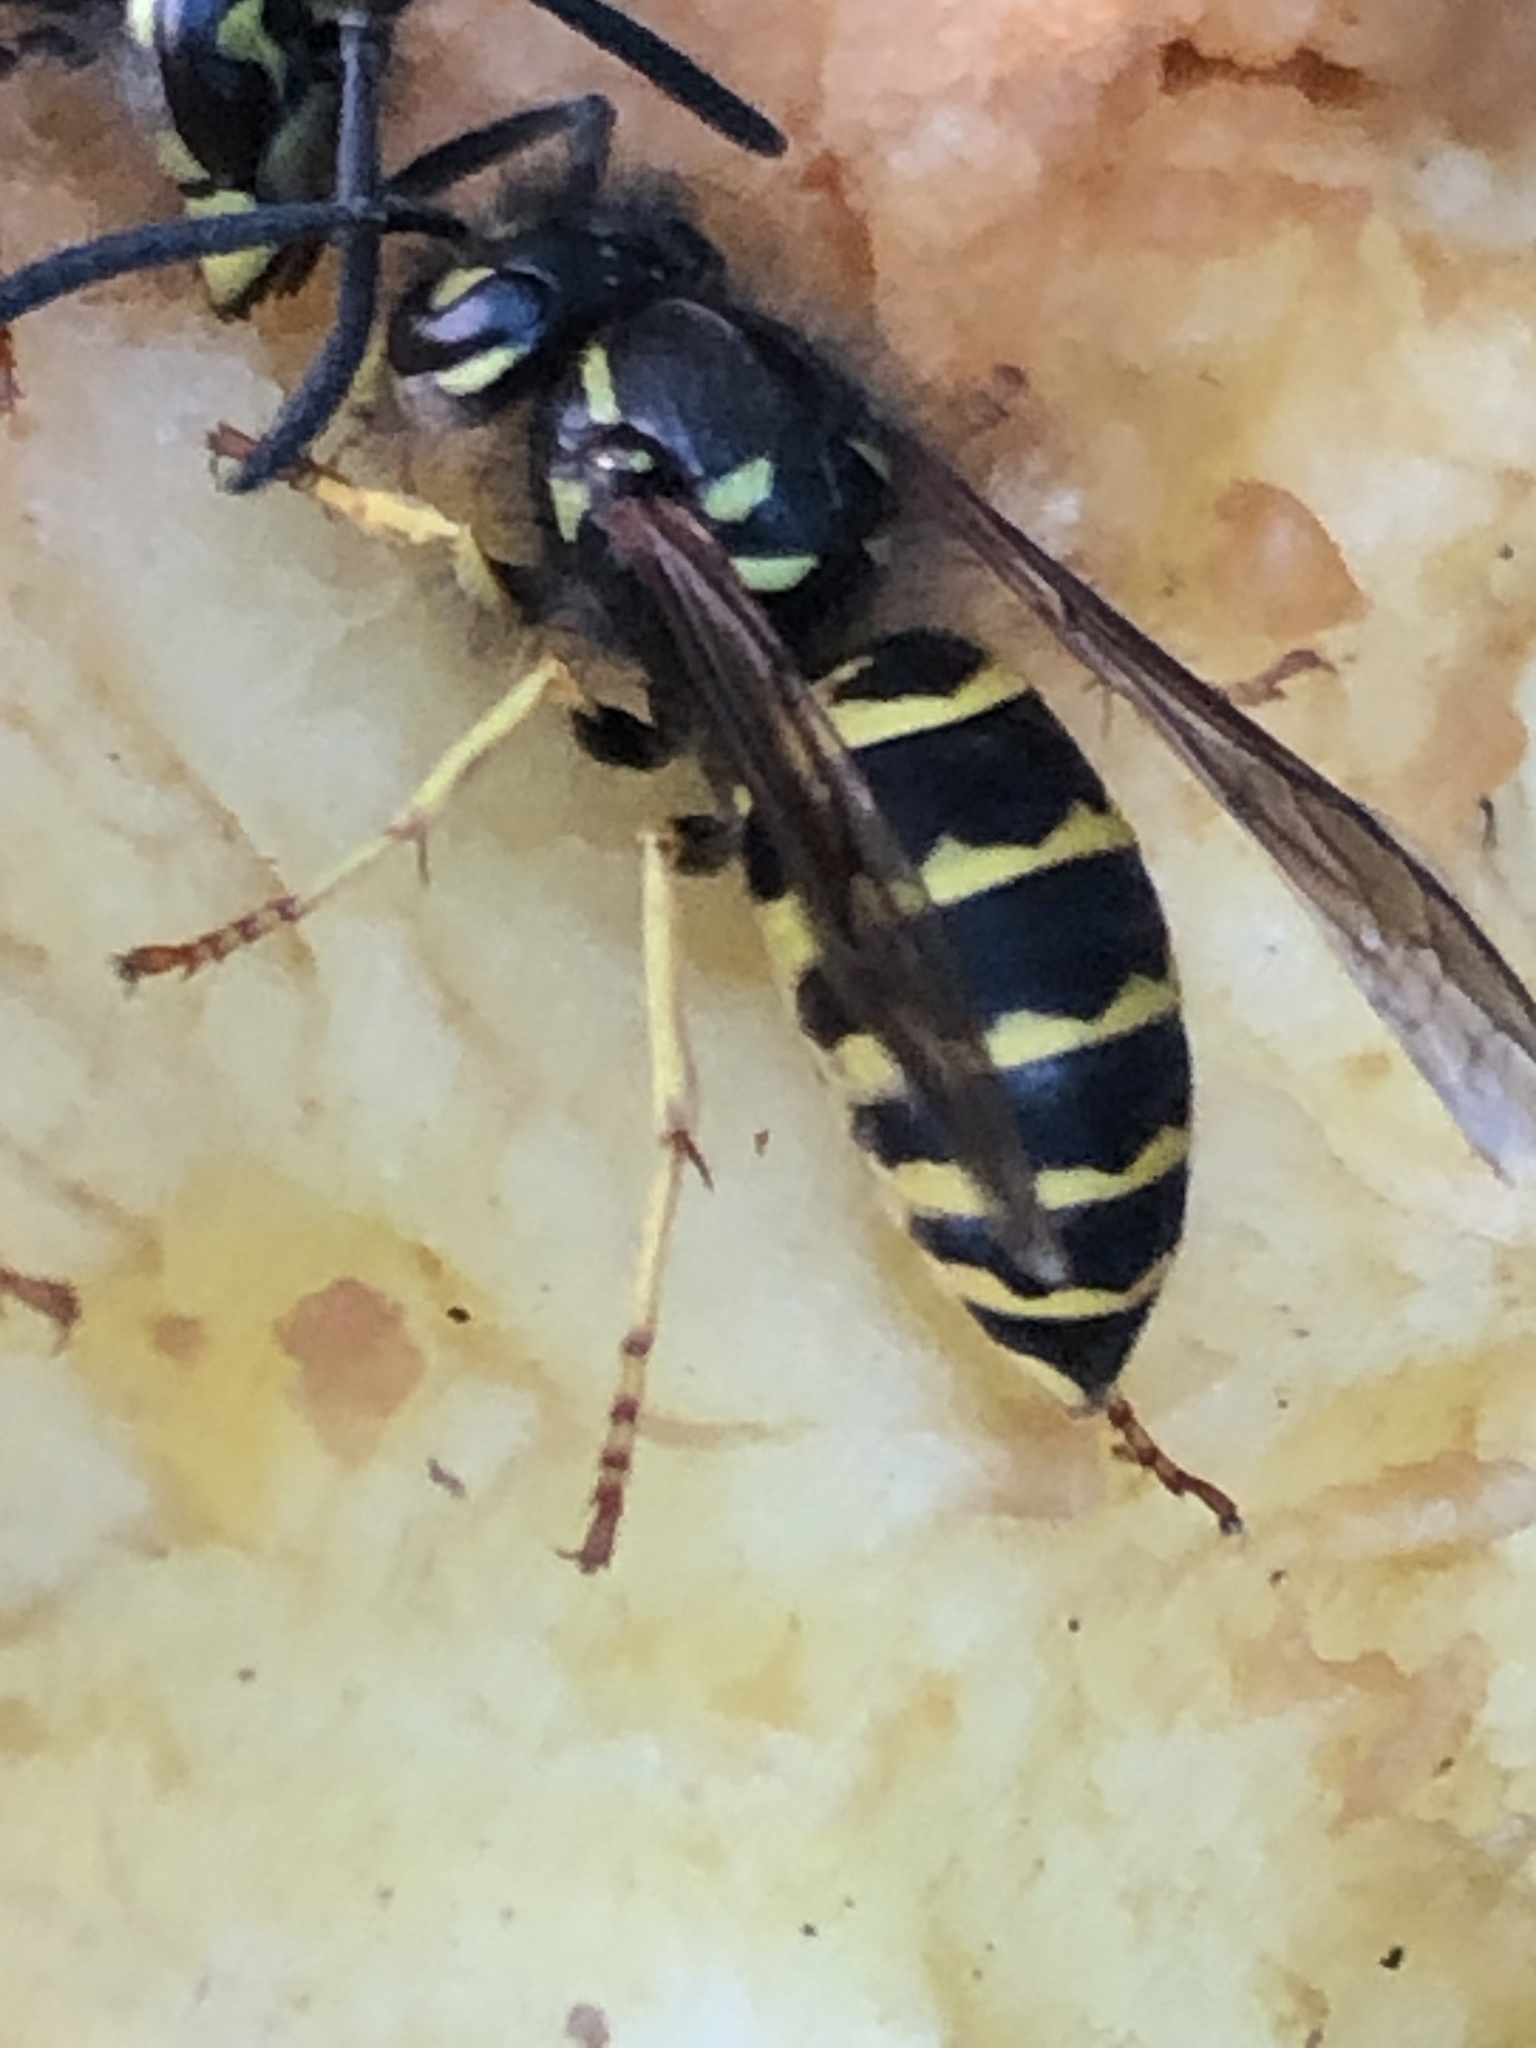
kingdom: Animalia
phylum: Arthropoda
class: Insecta
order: Hymenoptera
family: Vespidae
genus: Vespula
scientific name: Vespula alascensis
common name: Alaska yellowjacket
